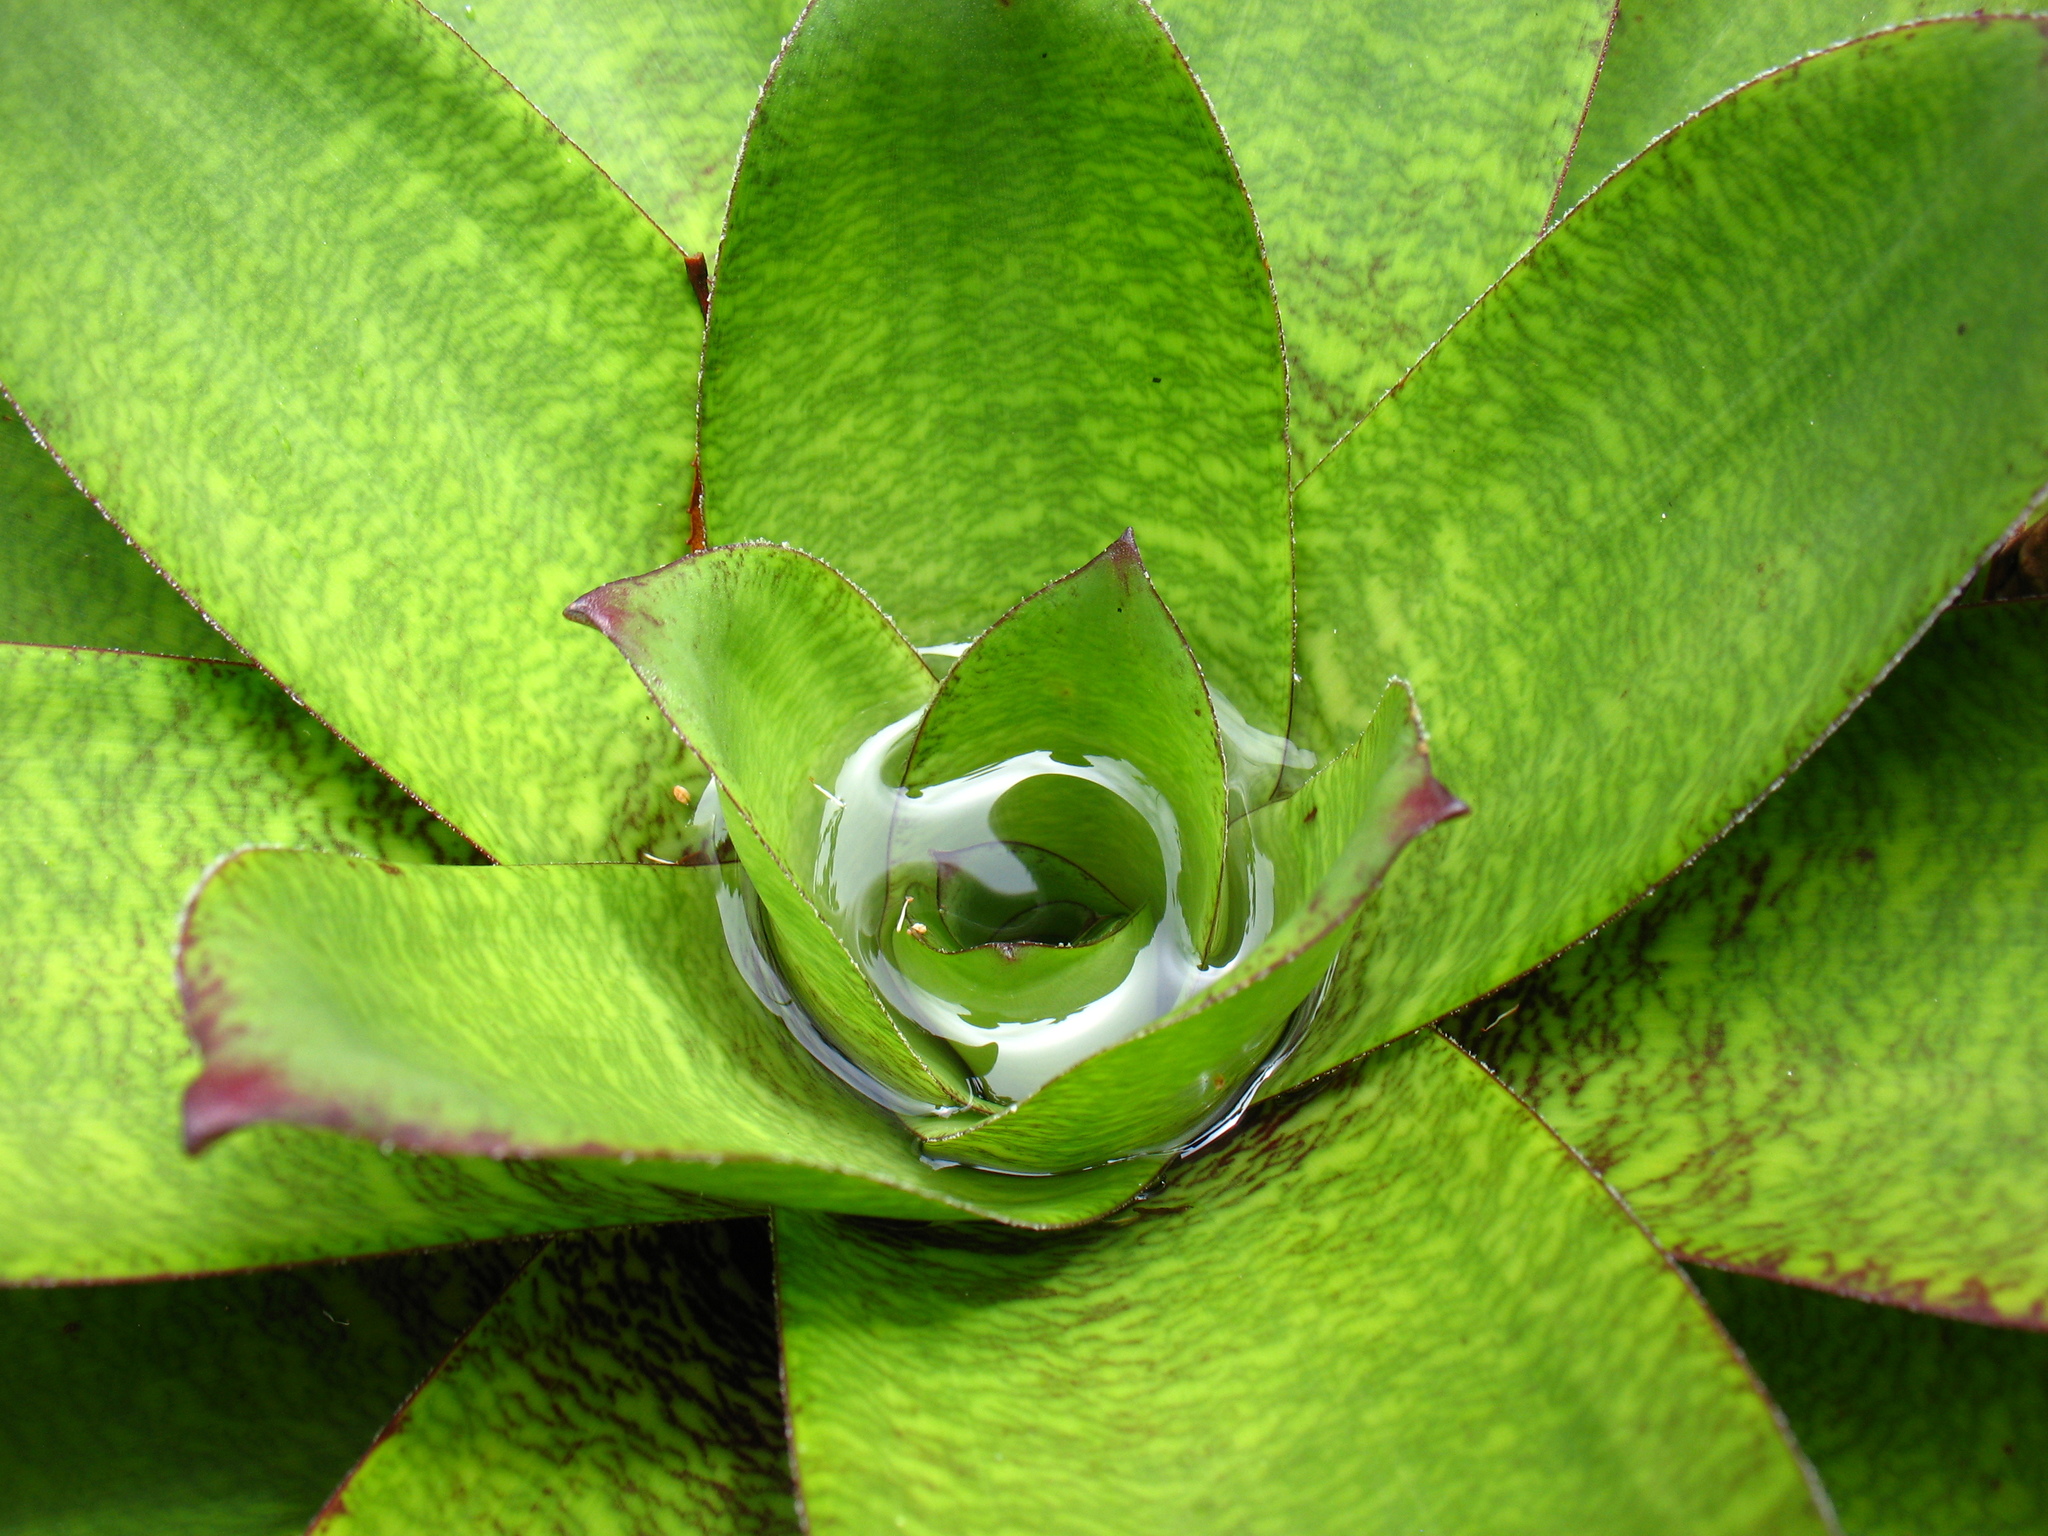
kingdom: Plantae
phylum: Tracheophyta
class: Liliopsida
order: Poales
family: Bromeliaceae
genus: Werauhia
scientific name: Werauhia kupperiana
